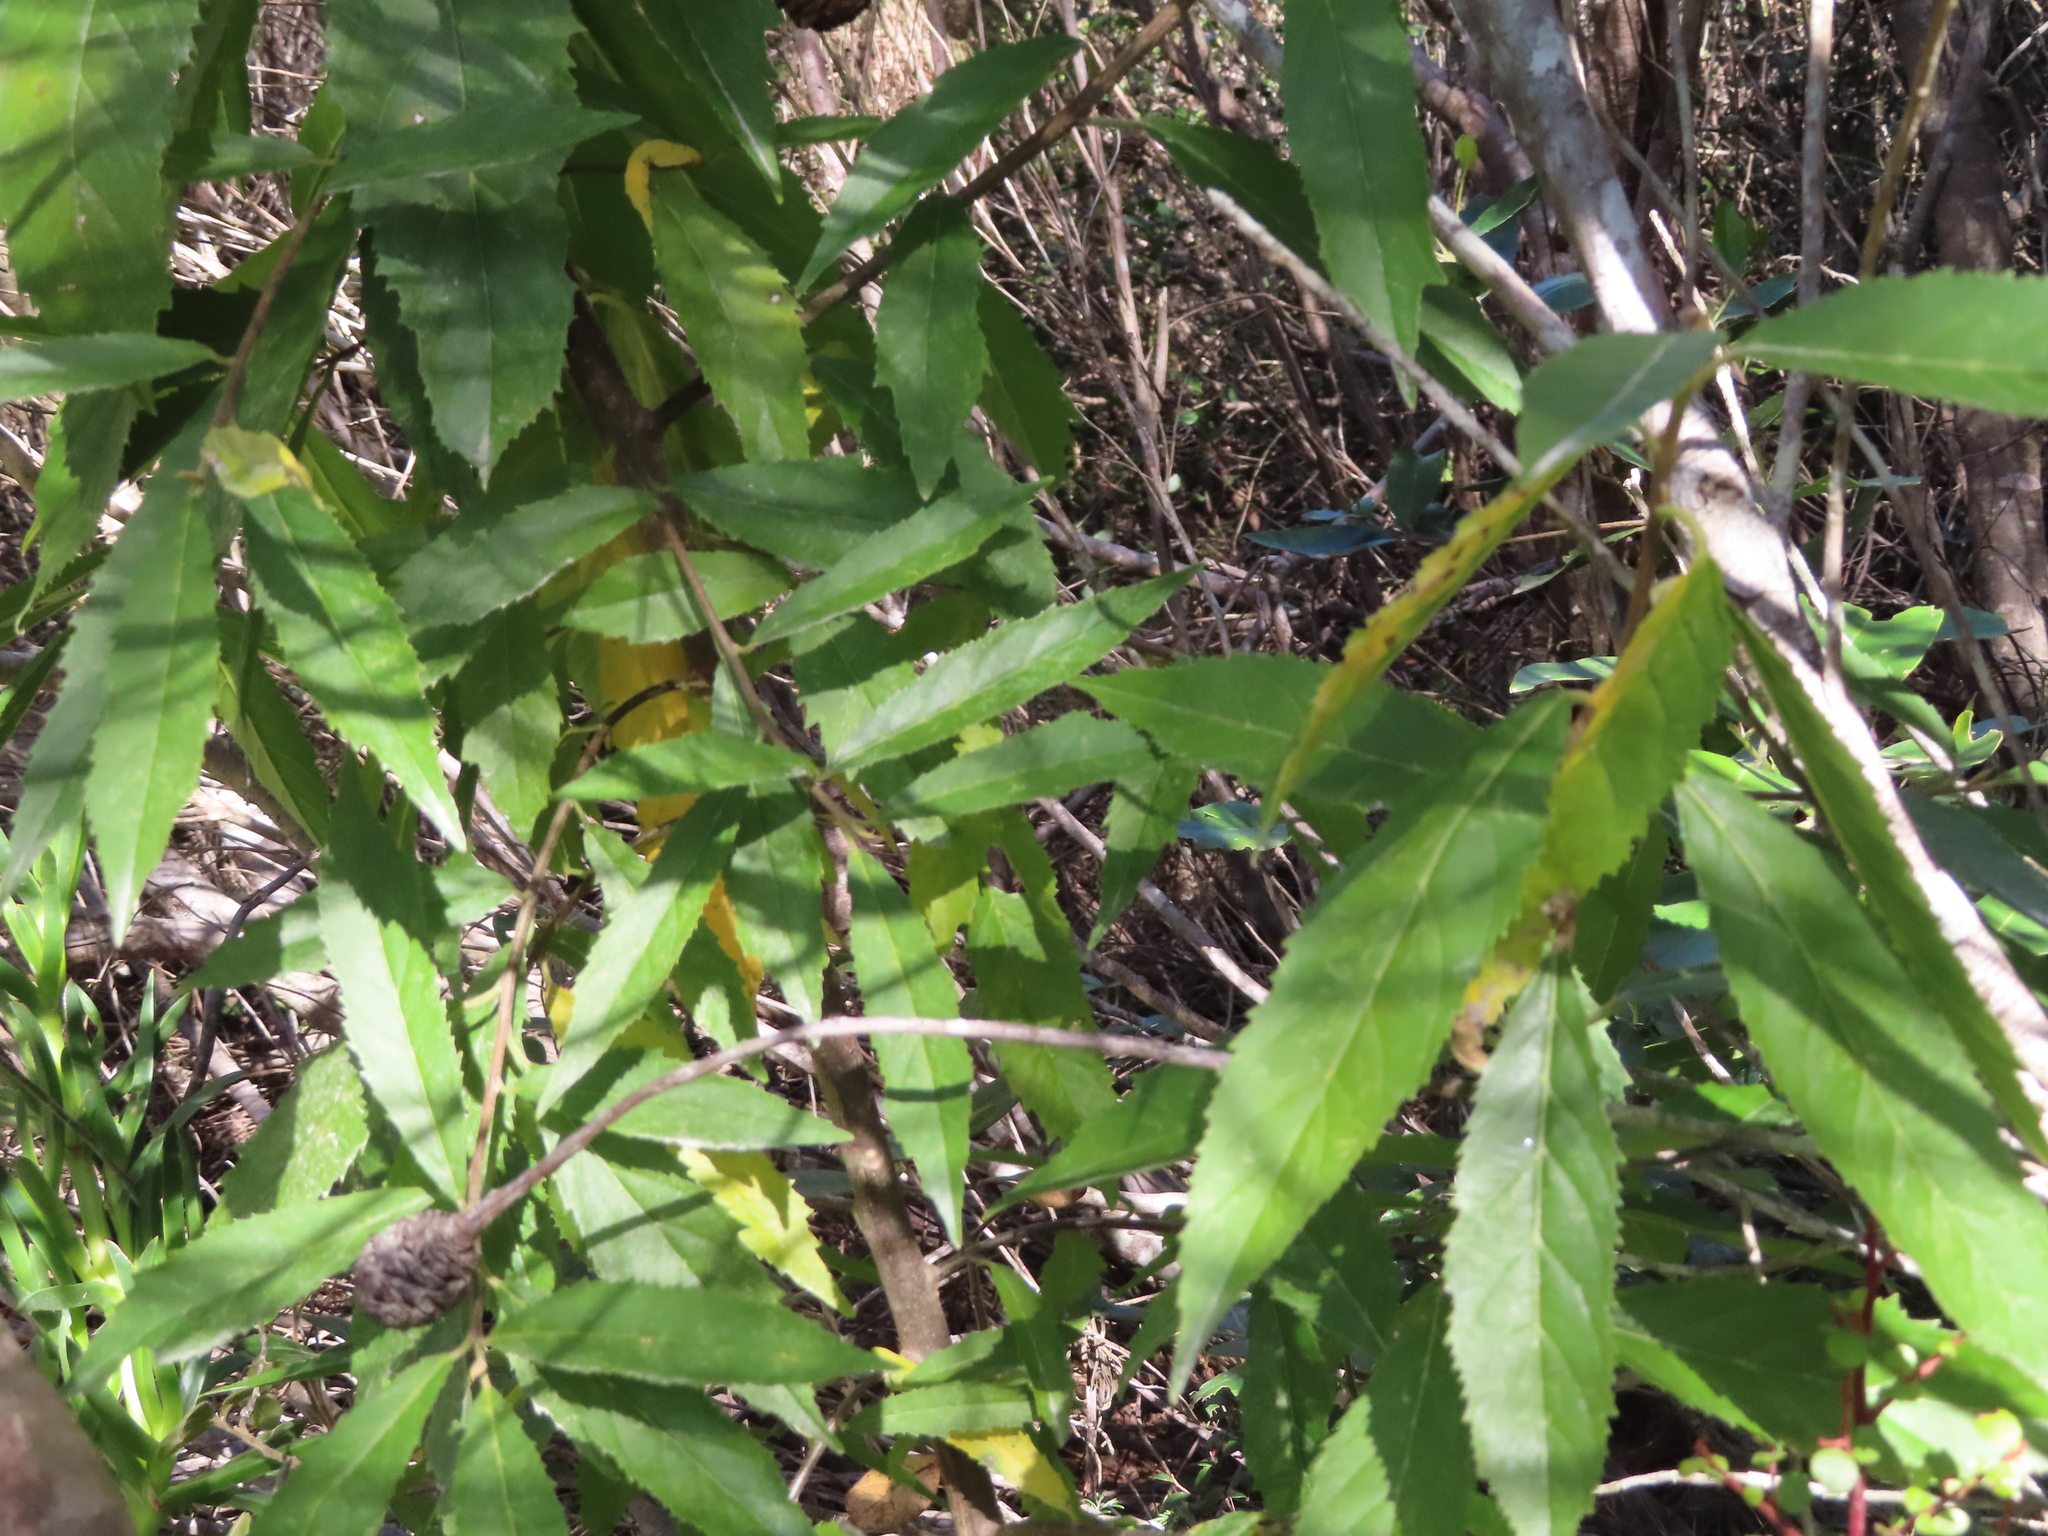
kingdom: Plantae
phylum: Tracheophyta
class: Magnoliopsida
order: Malpighiales
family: Achariaceae
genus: Kiggelaria
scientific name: Kiggelaria africana
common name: Wild peach
